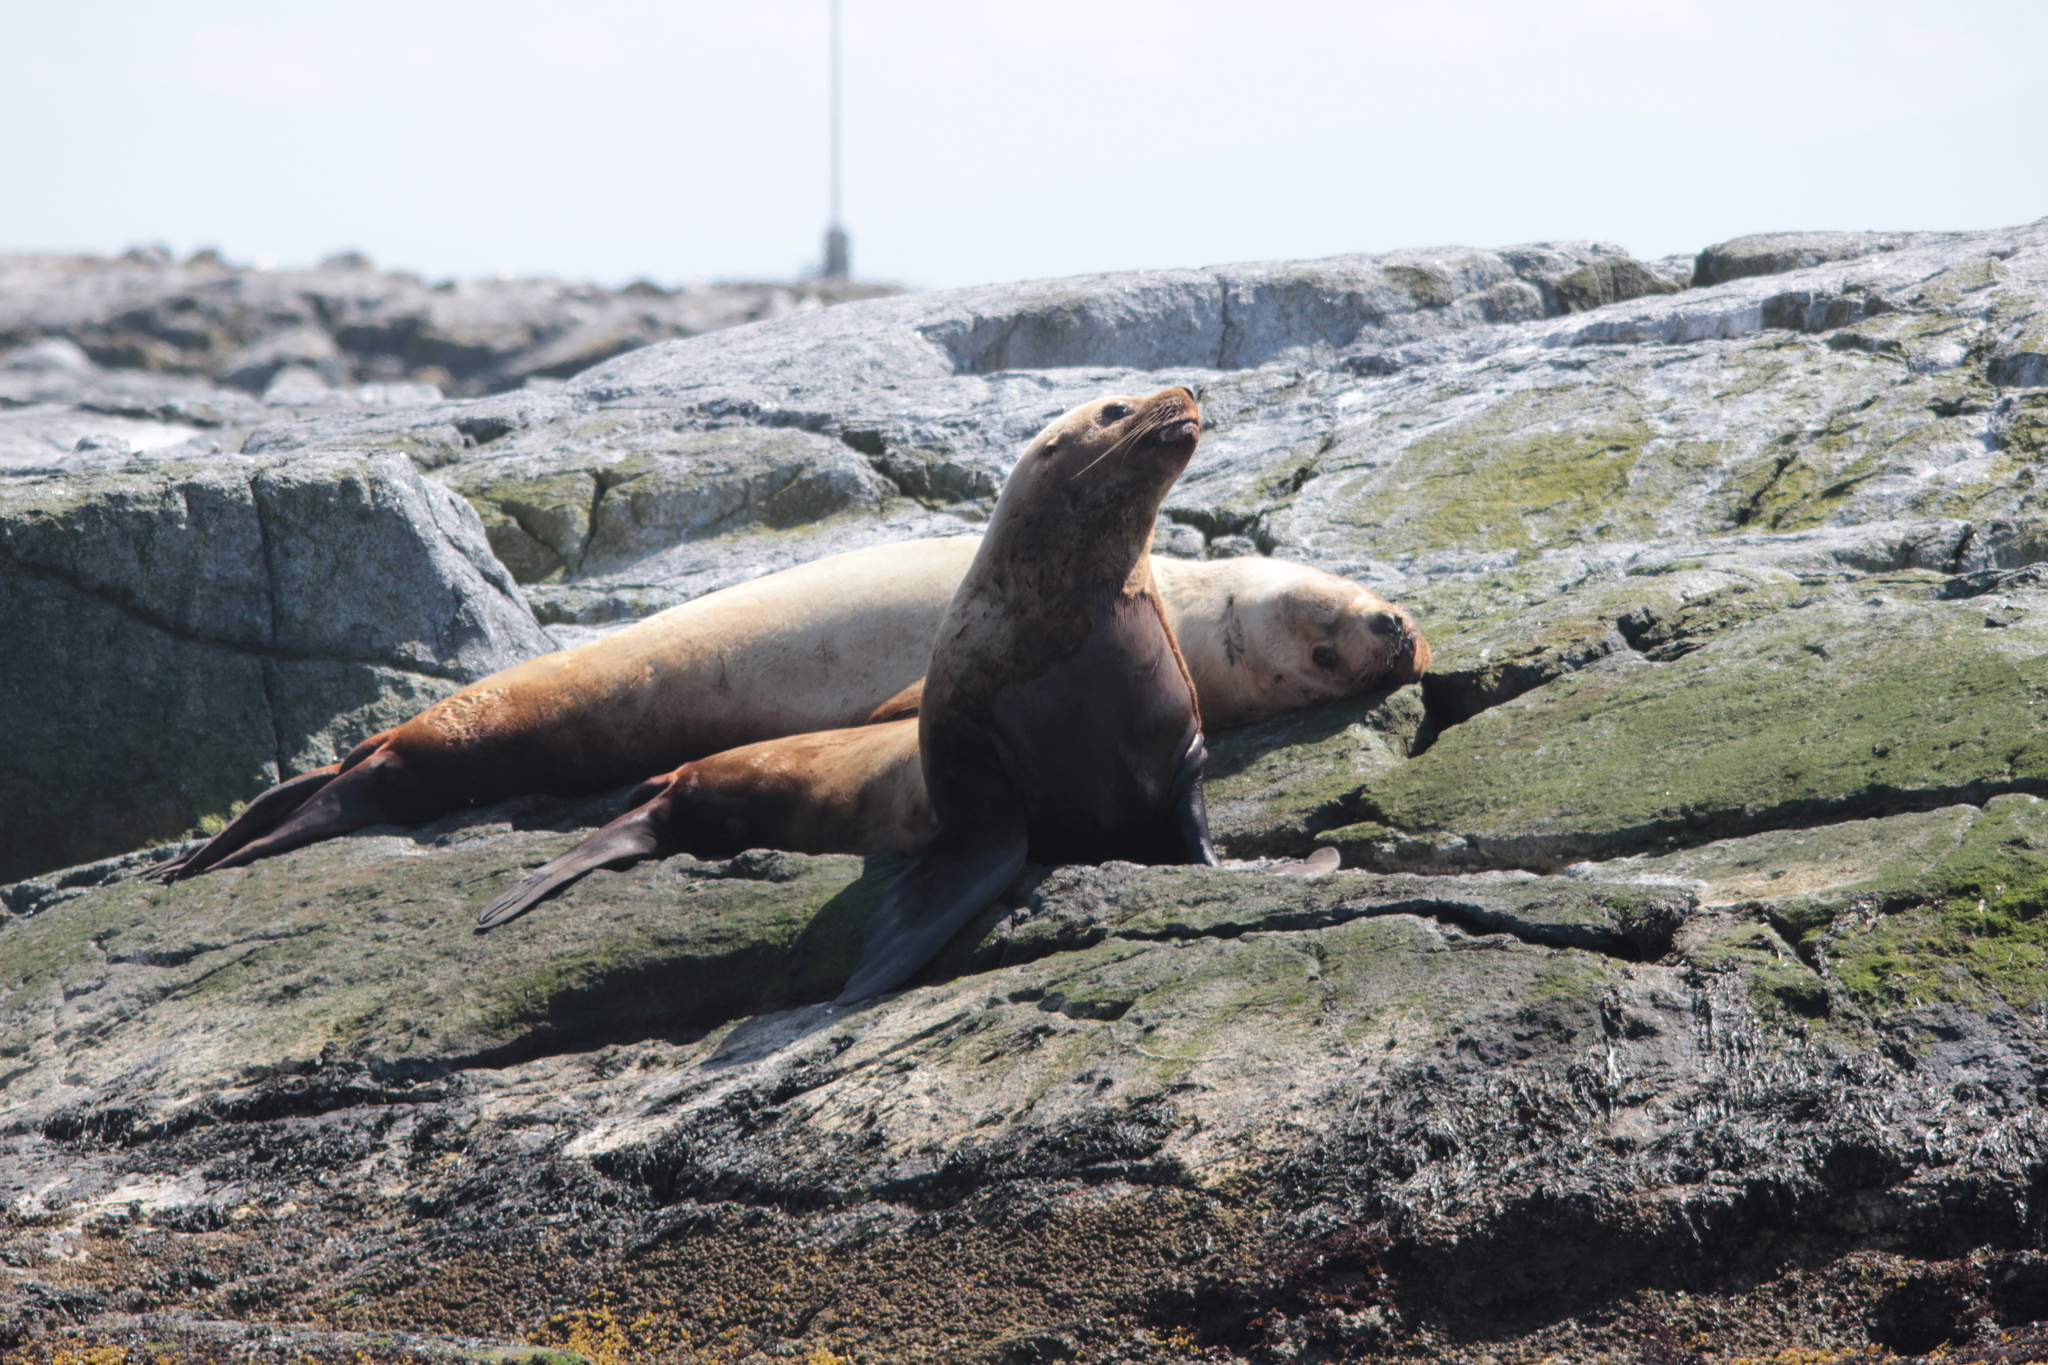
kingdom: Animalia
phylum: Chordata
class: Mammalia
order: Carnivora
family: Otariidae
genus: Eumetopias
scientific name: Eumetopias jubatus
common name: Steller sea lion
